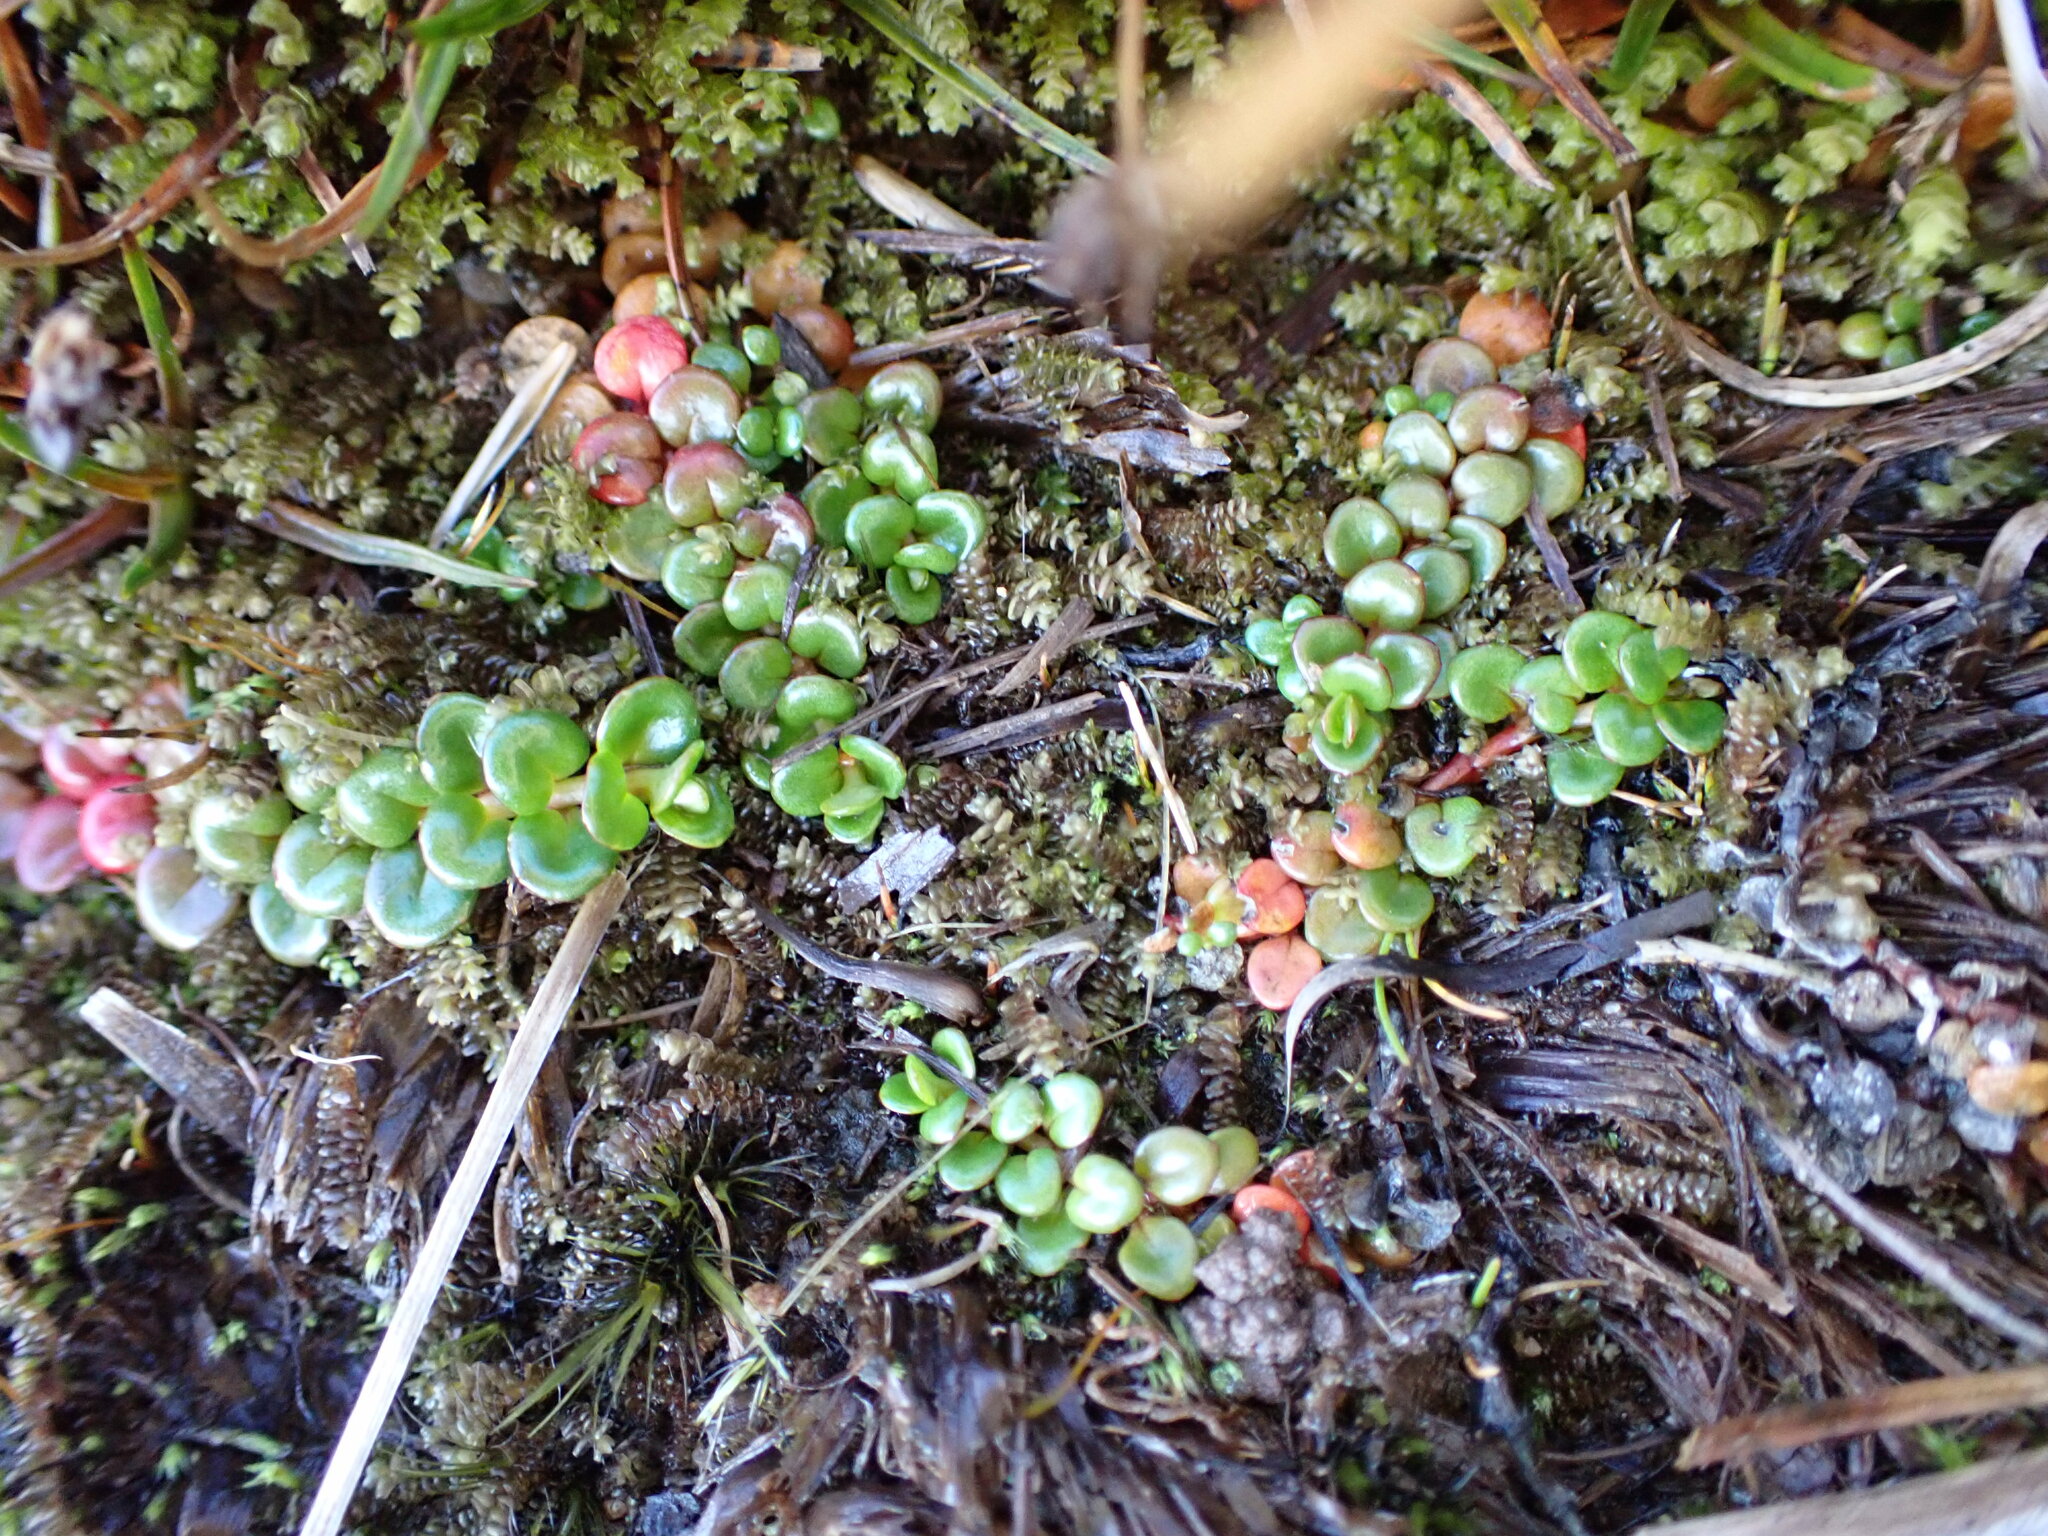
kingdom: Plantae
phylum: Tracheophyta
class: Magnoliopsida
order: Myrtales
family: Onagraceae
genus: Epilobium
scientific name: Epilobium pernitens
